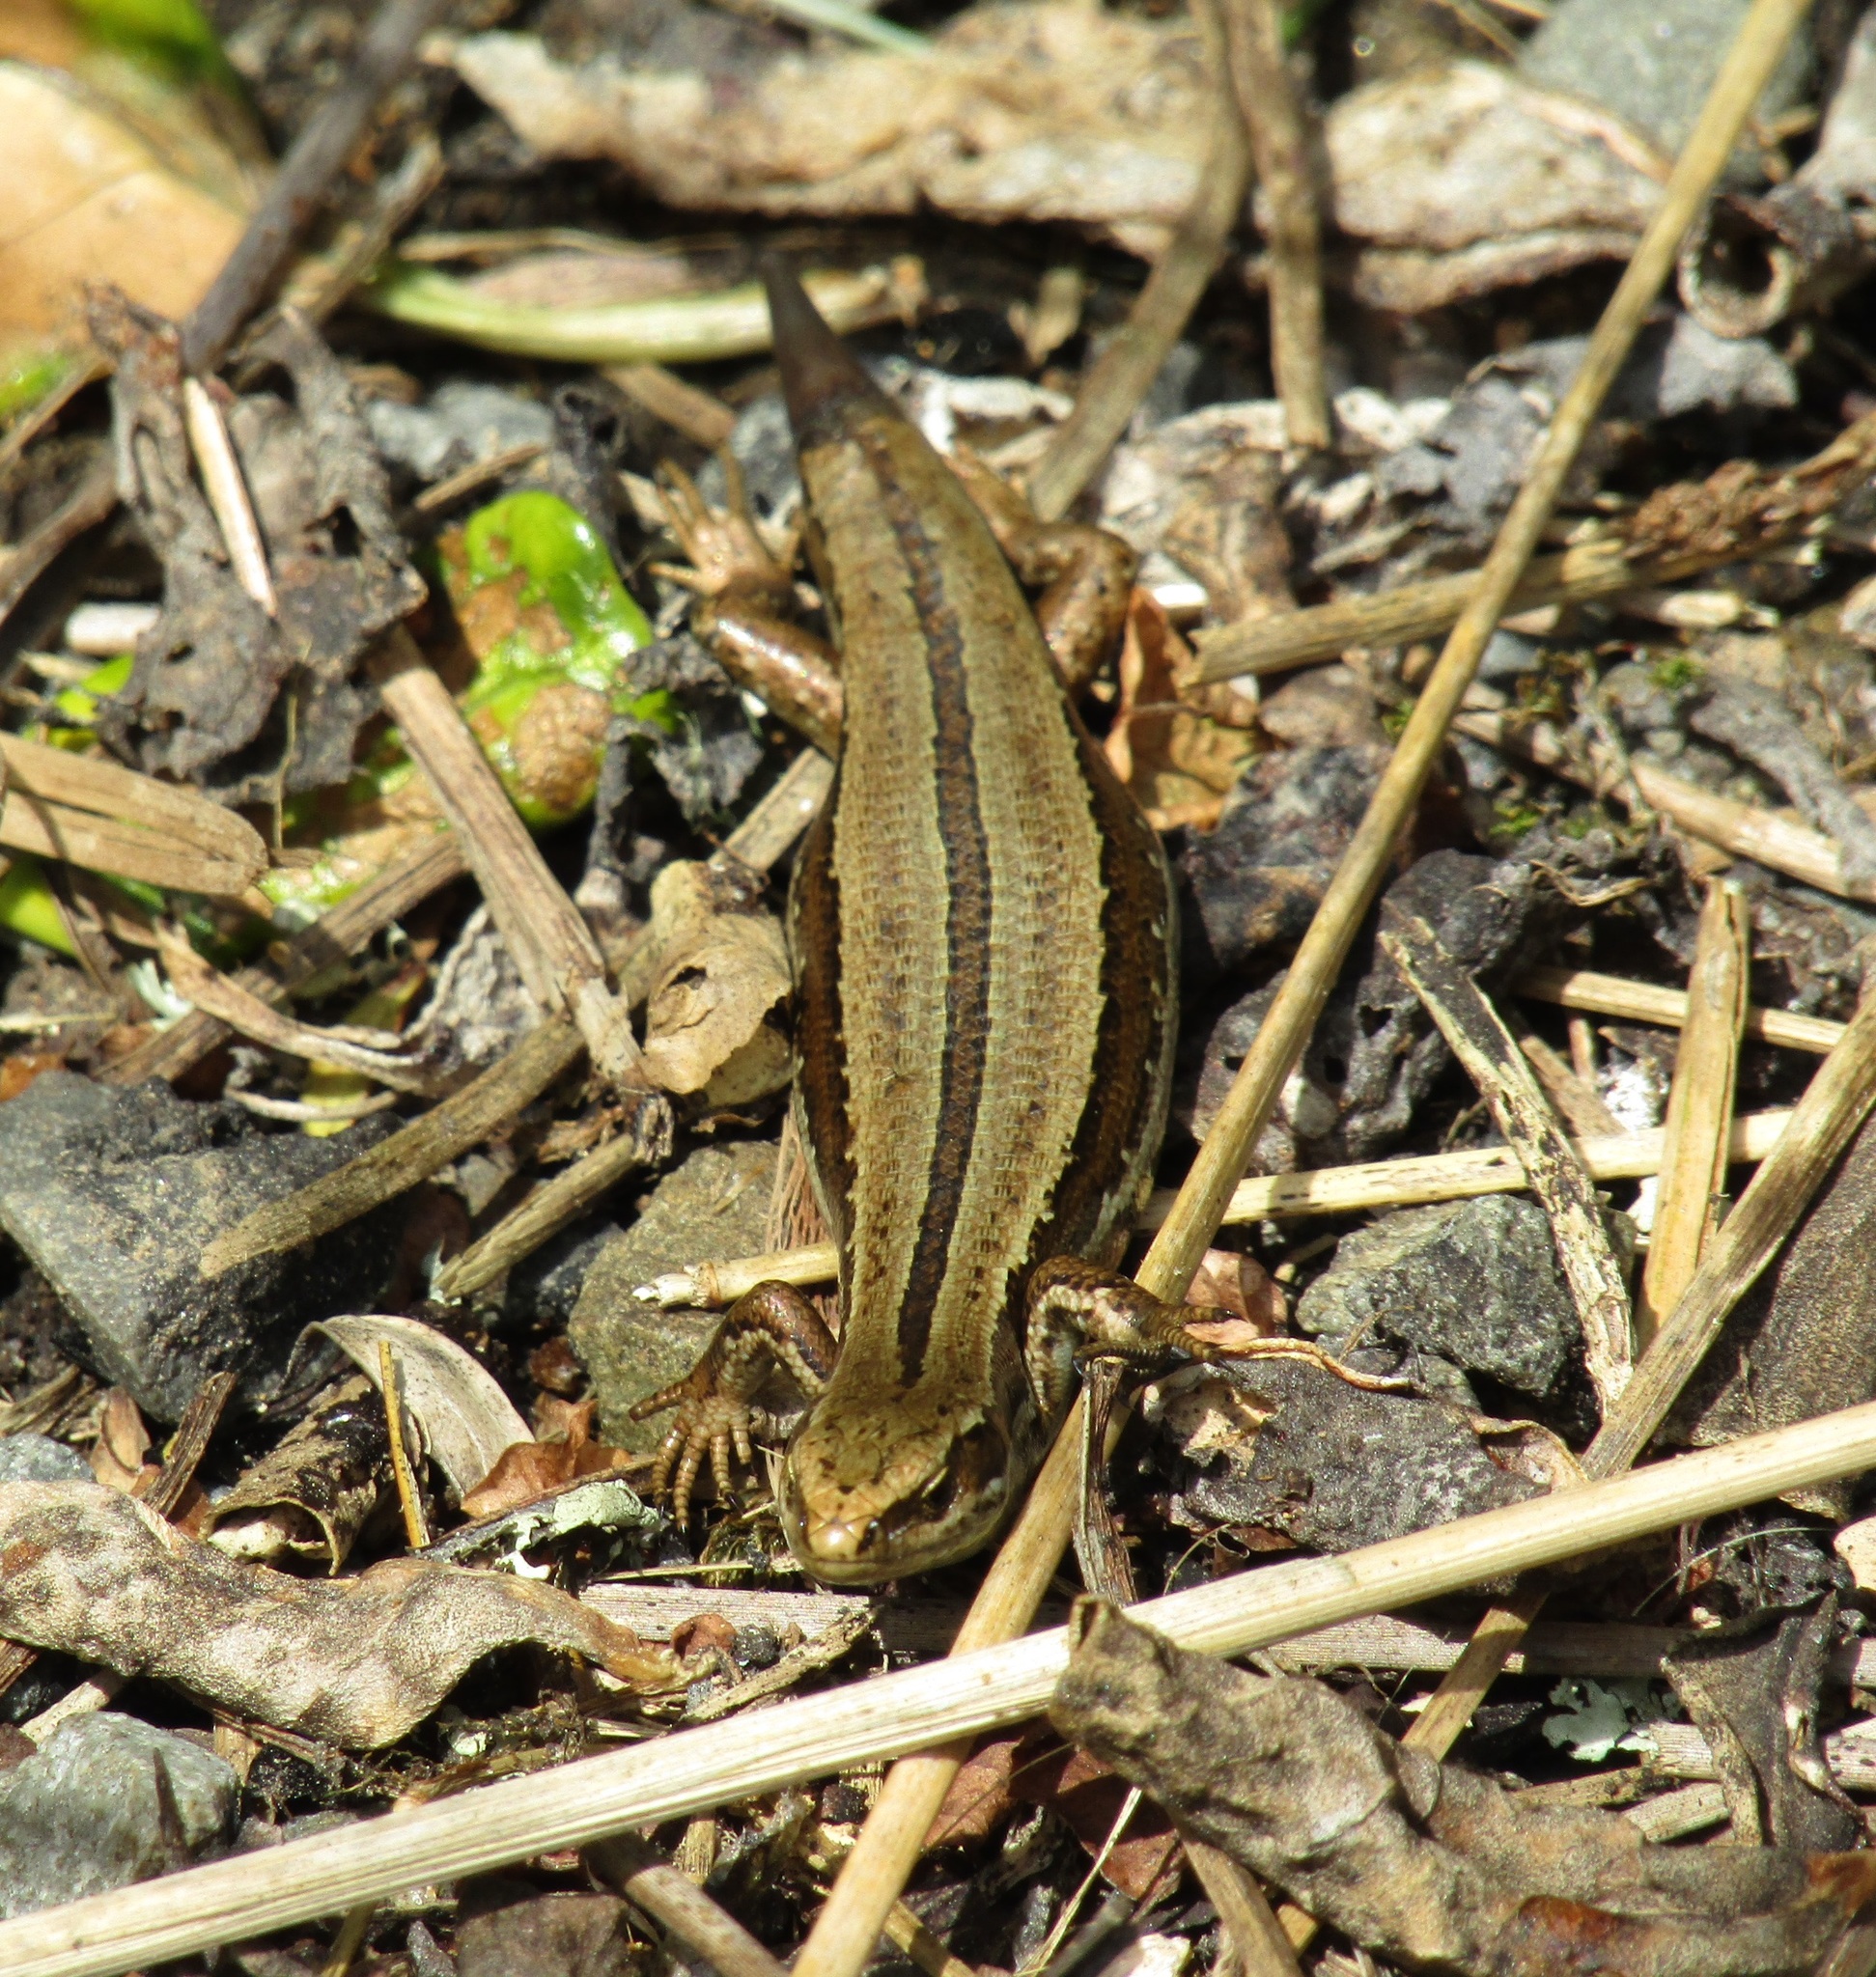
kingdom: Animalia
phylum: Chordata
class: Squamata
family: Scincidae
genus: Oligosoma
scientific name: Oligosoma polychroma
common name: Common new zealand skink
